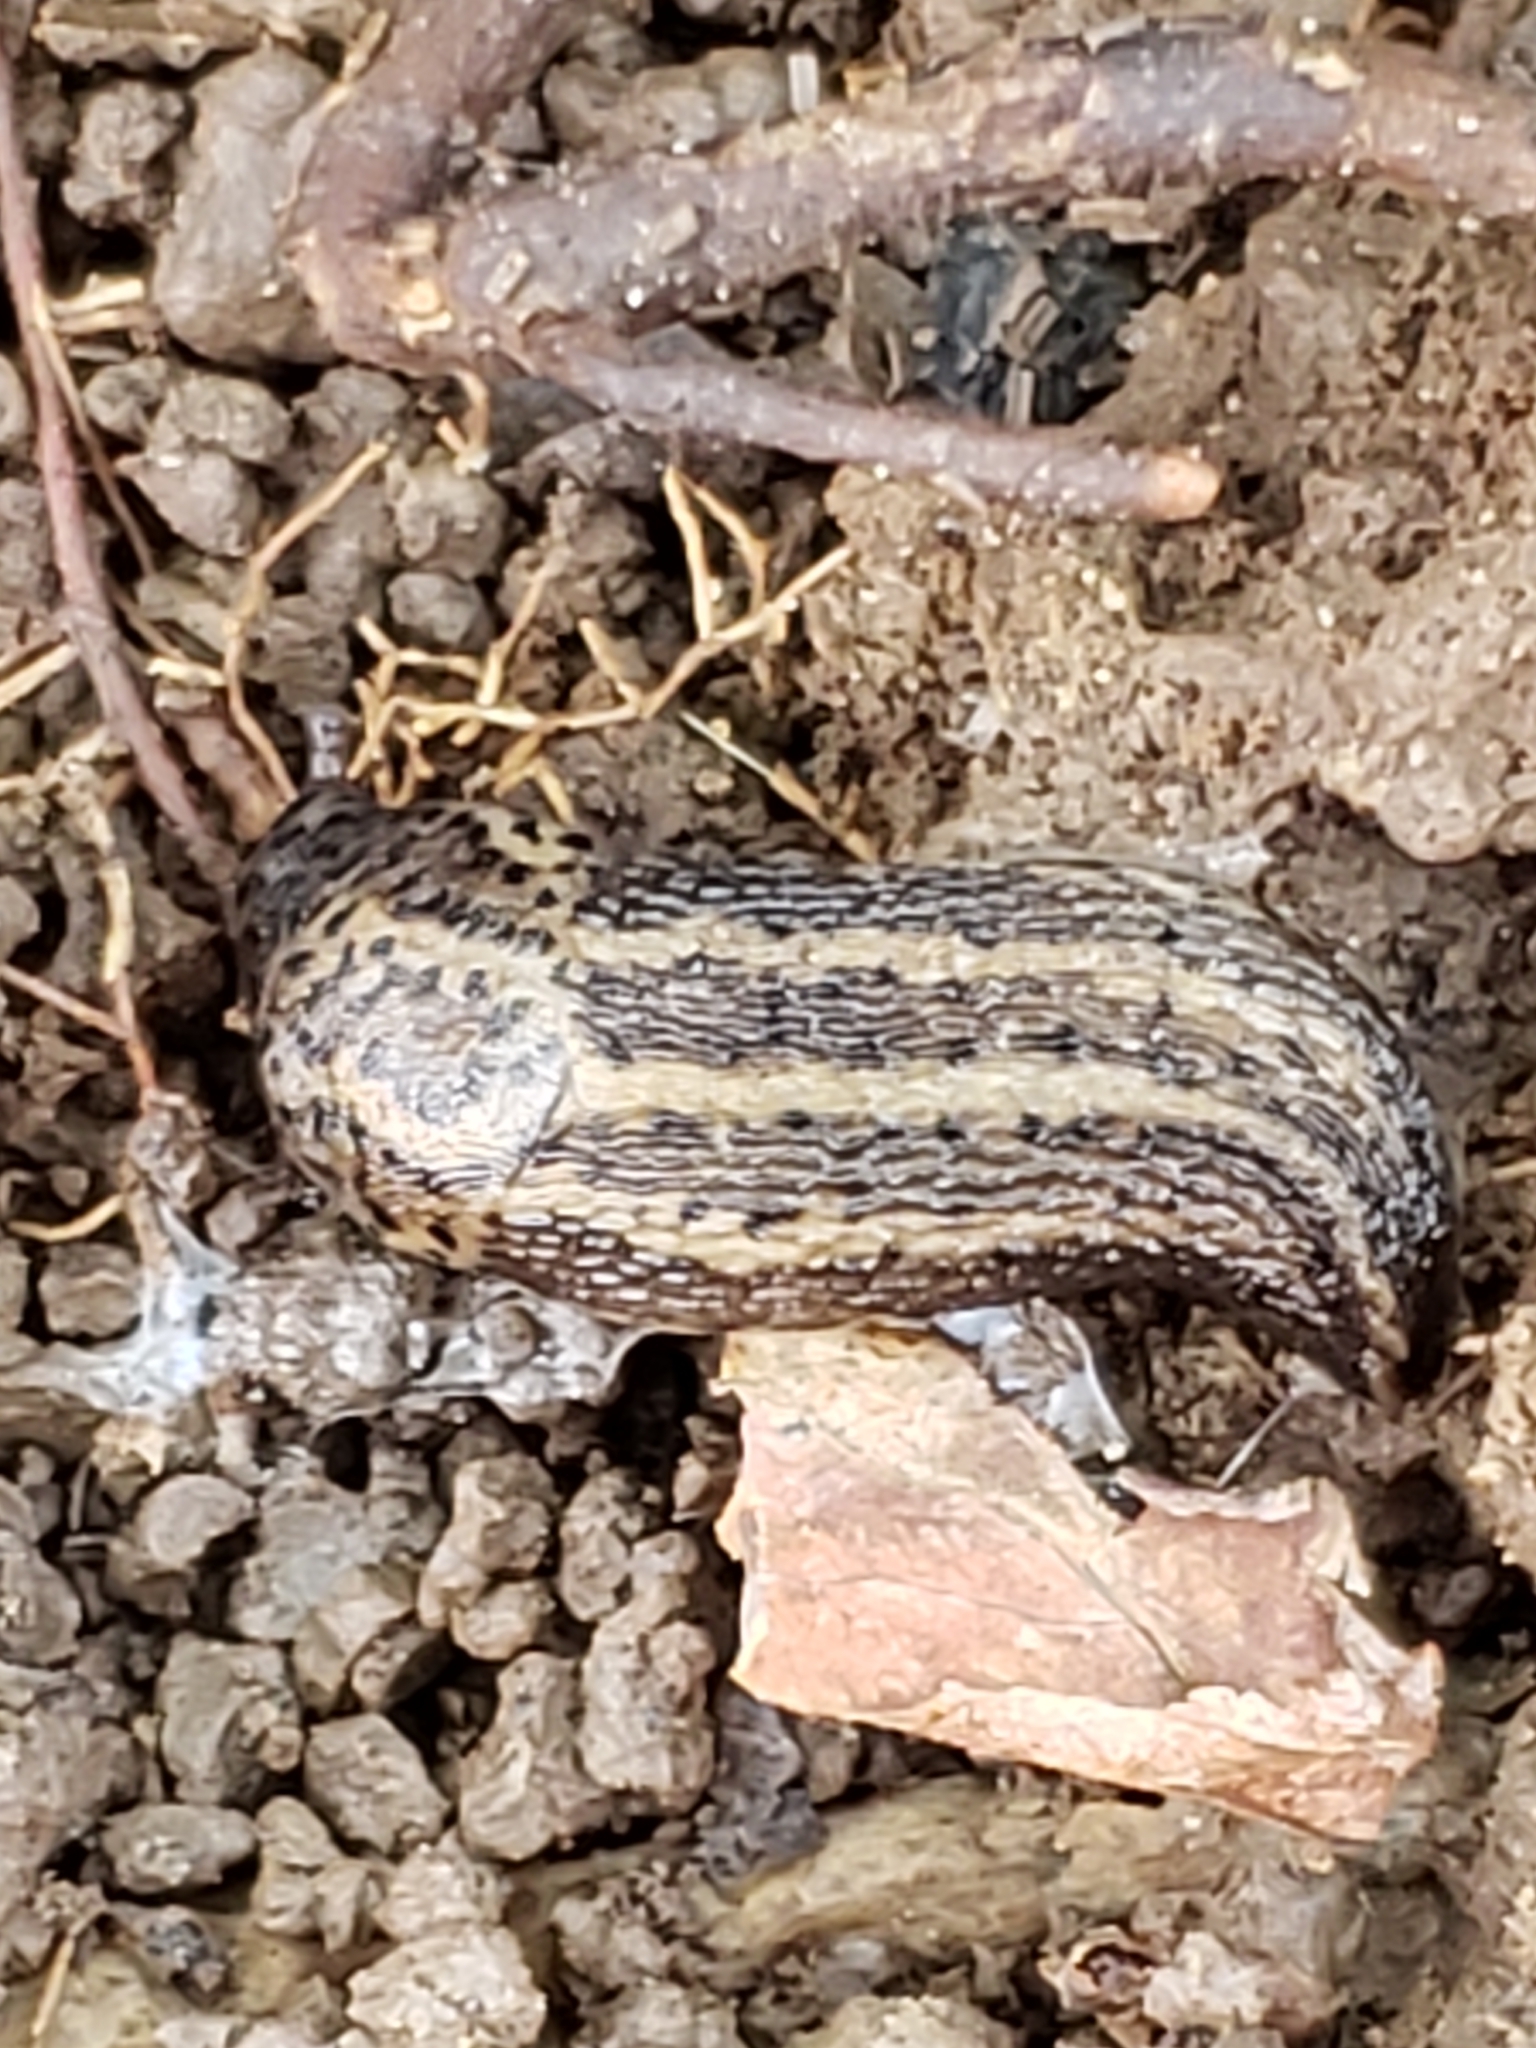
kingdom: Animalia
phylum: Mollusca
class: Gastropoda
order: Stylommatophora
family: Limacidae
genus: Limax
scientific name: Limax maximus
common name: Great grey slug
